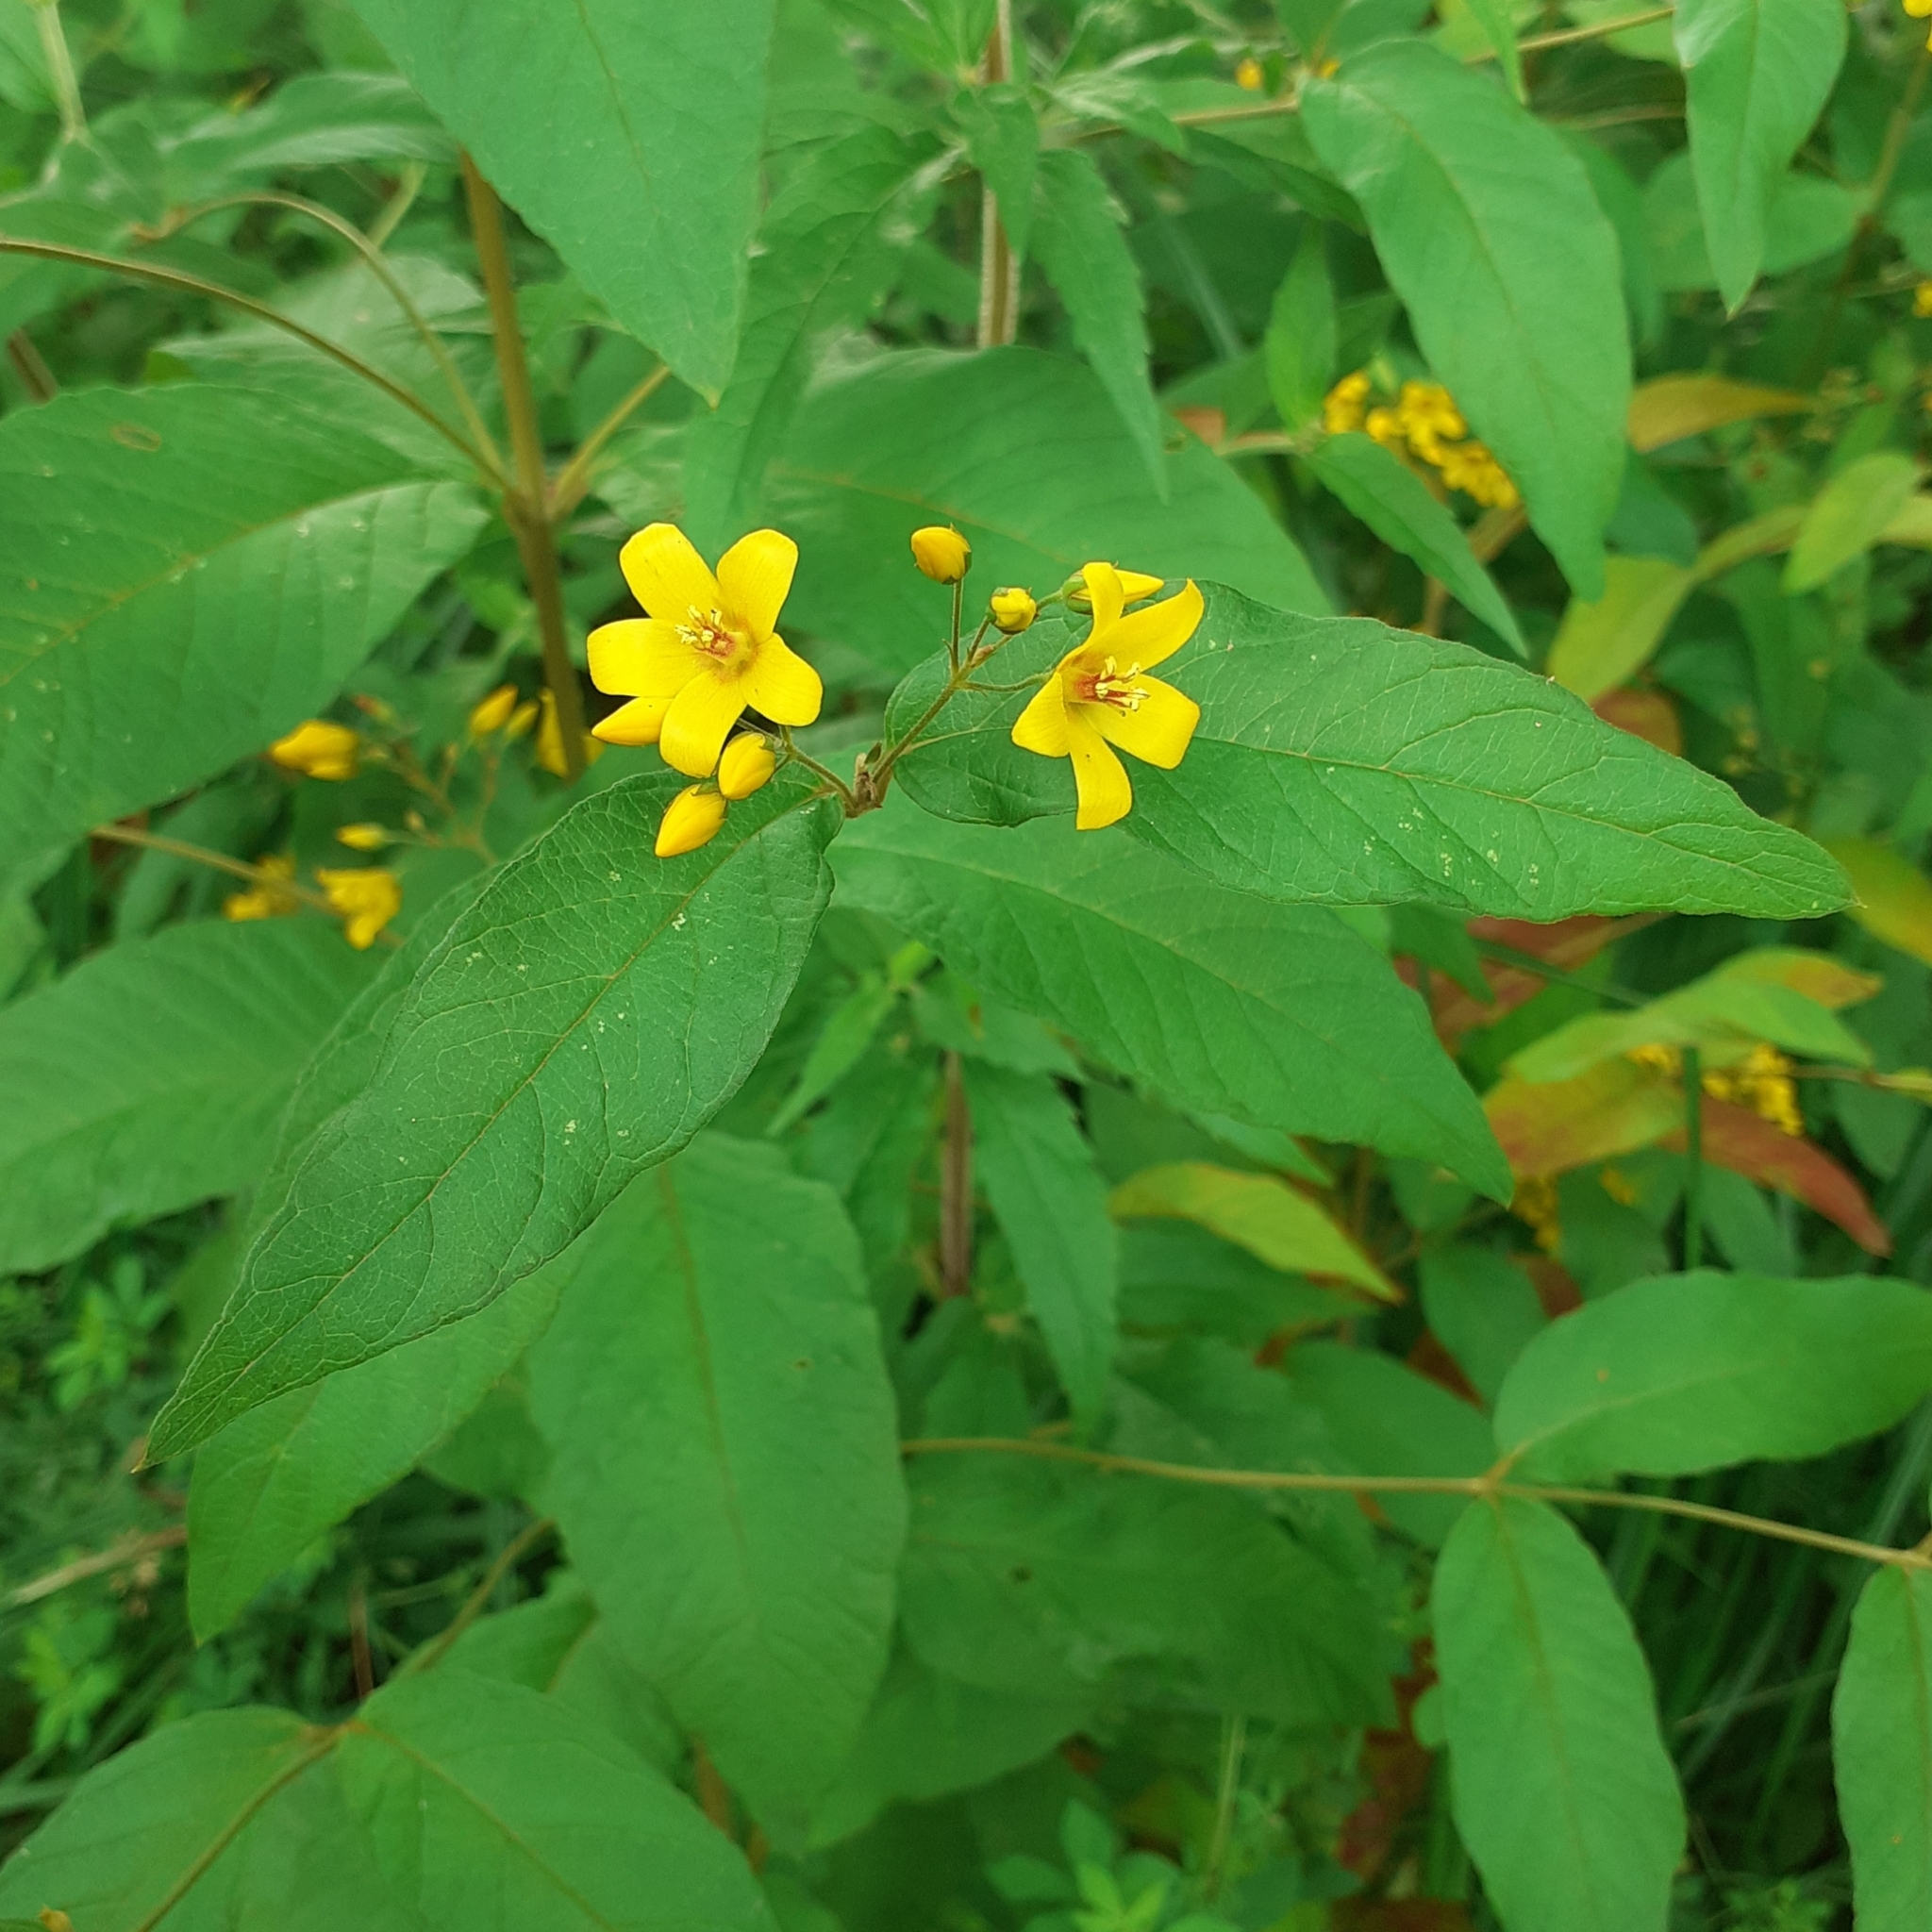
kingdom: Plantae
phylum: Tracheophyta
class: Magnoliopsida
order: Ericales
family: Primulaceae
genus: Lysimachia
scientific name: Lysimachia vulgaris
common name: Yellow loosestrife
